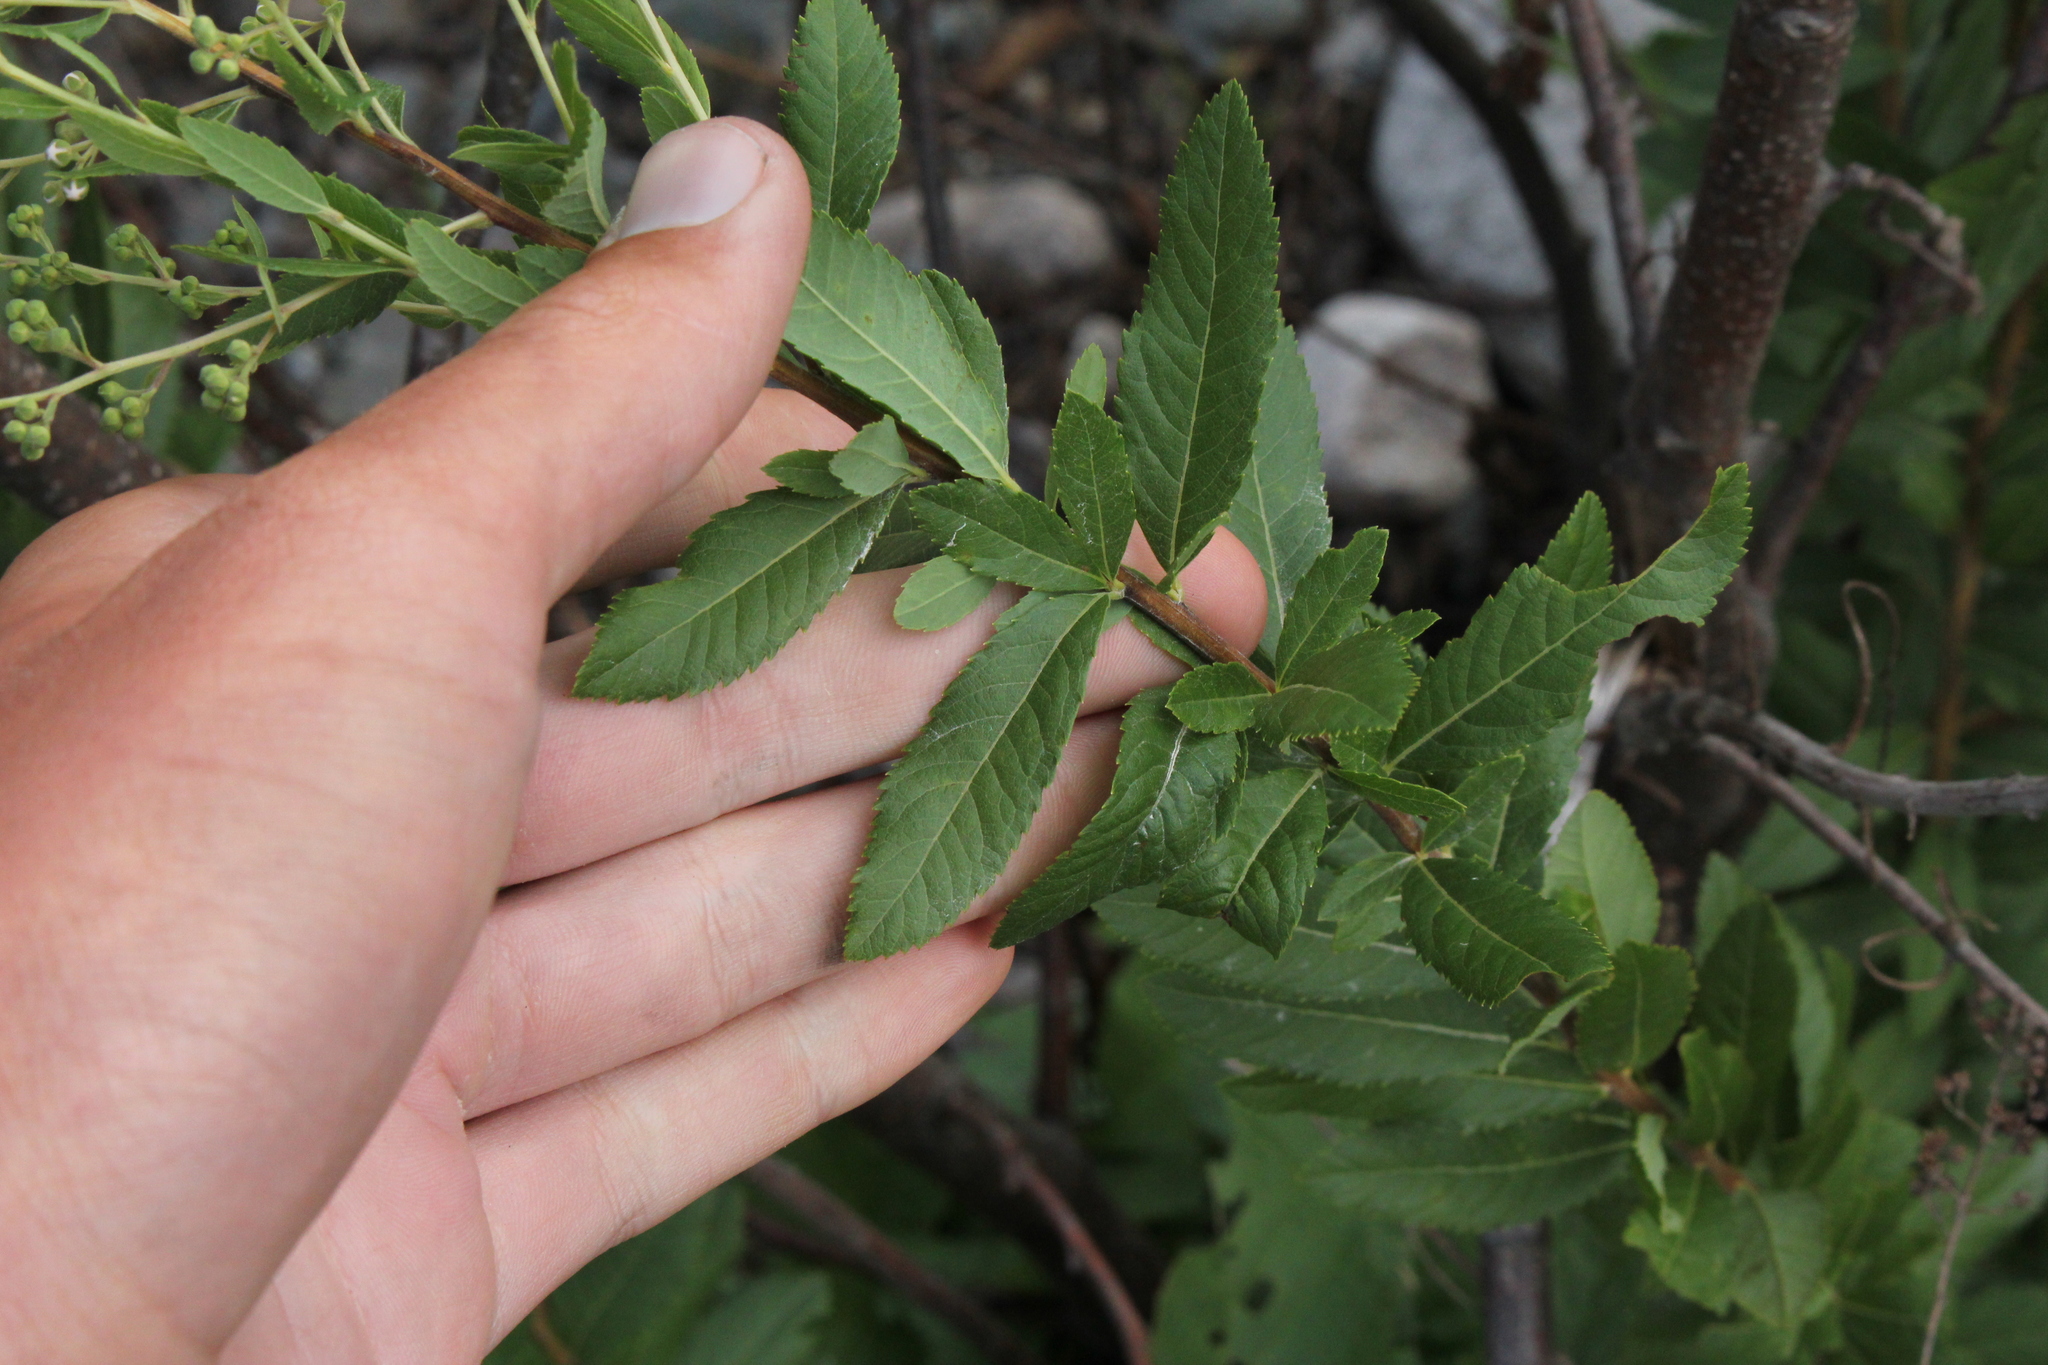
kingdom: Plantae
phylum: Tracheophyta
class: Magnoliopsida
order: Rosales
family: Rosaceae
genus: Spiraea
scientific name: Spiraea alba
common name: Pale bridewort
